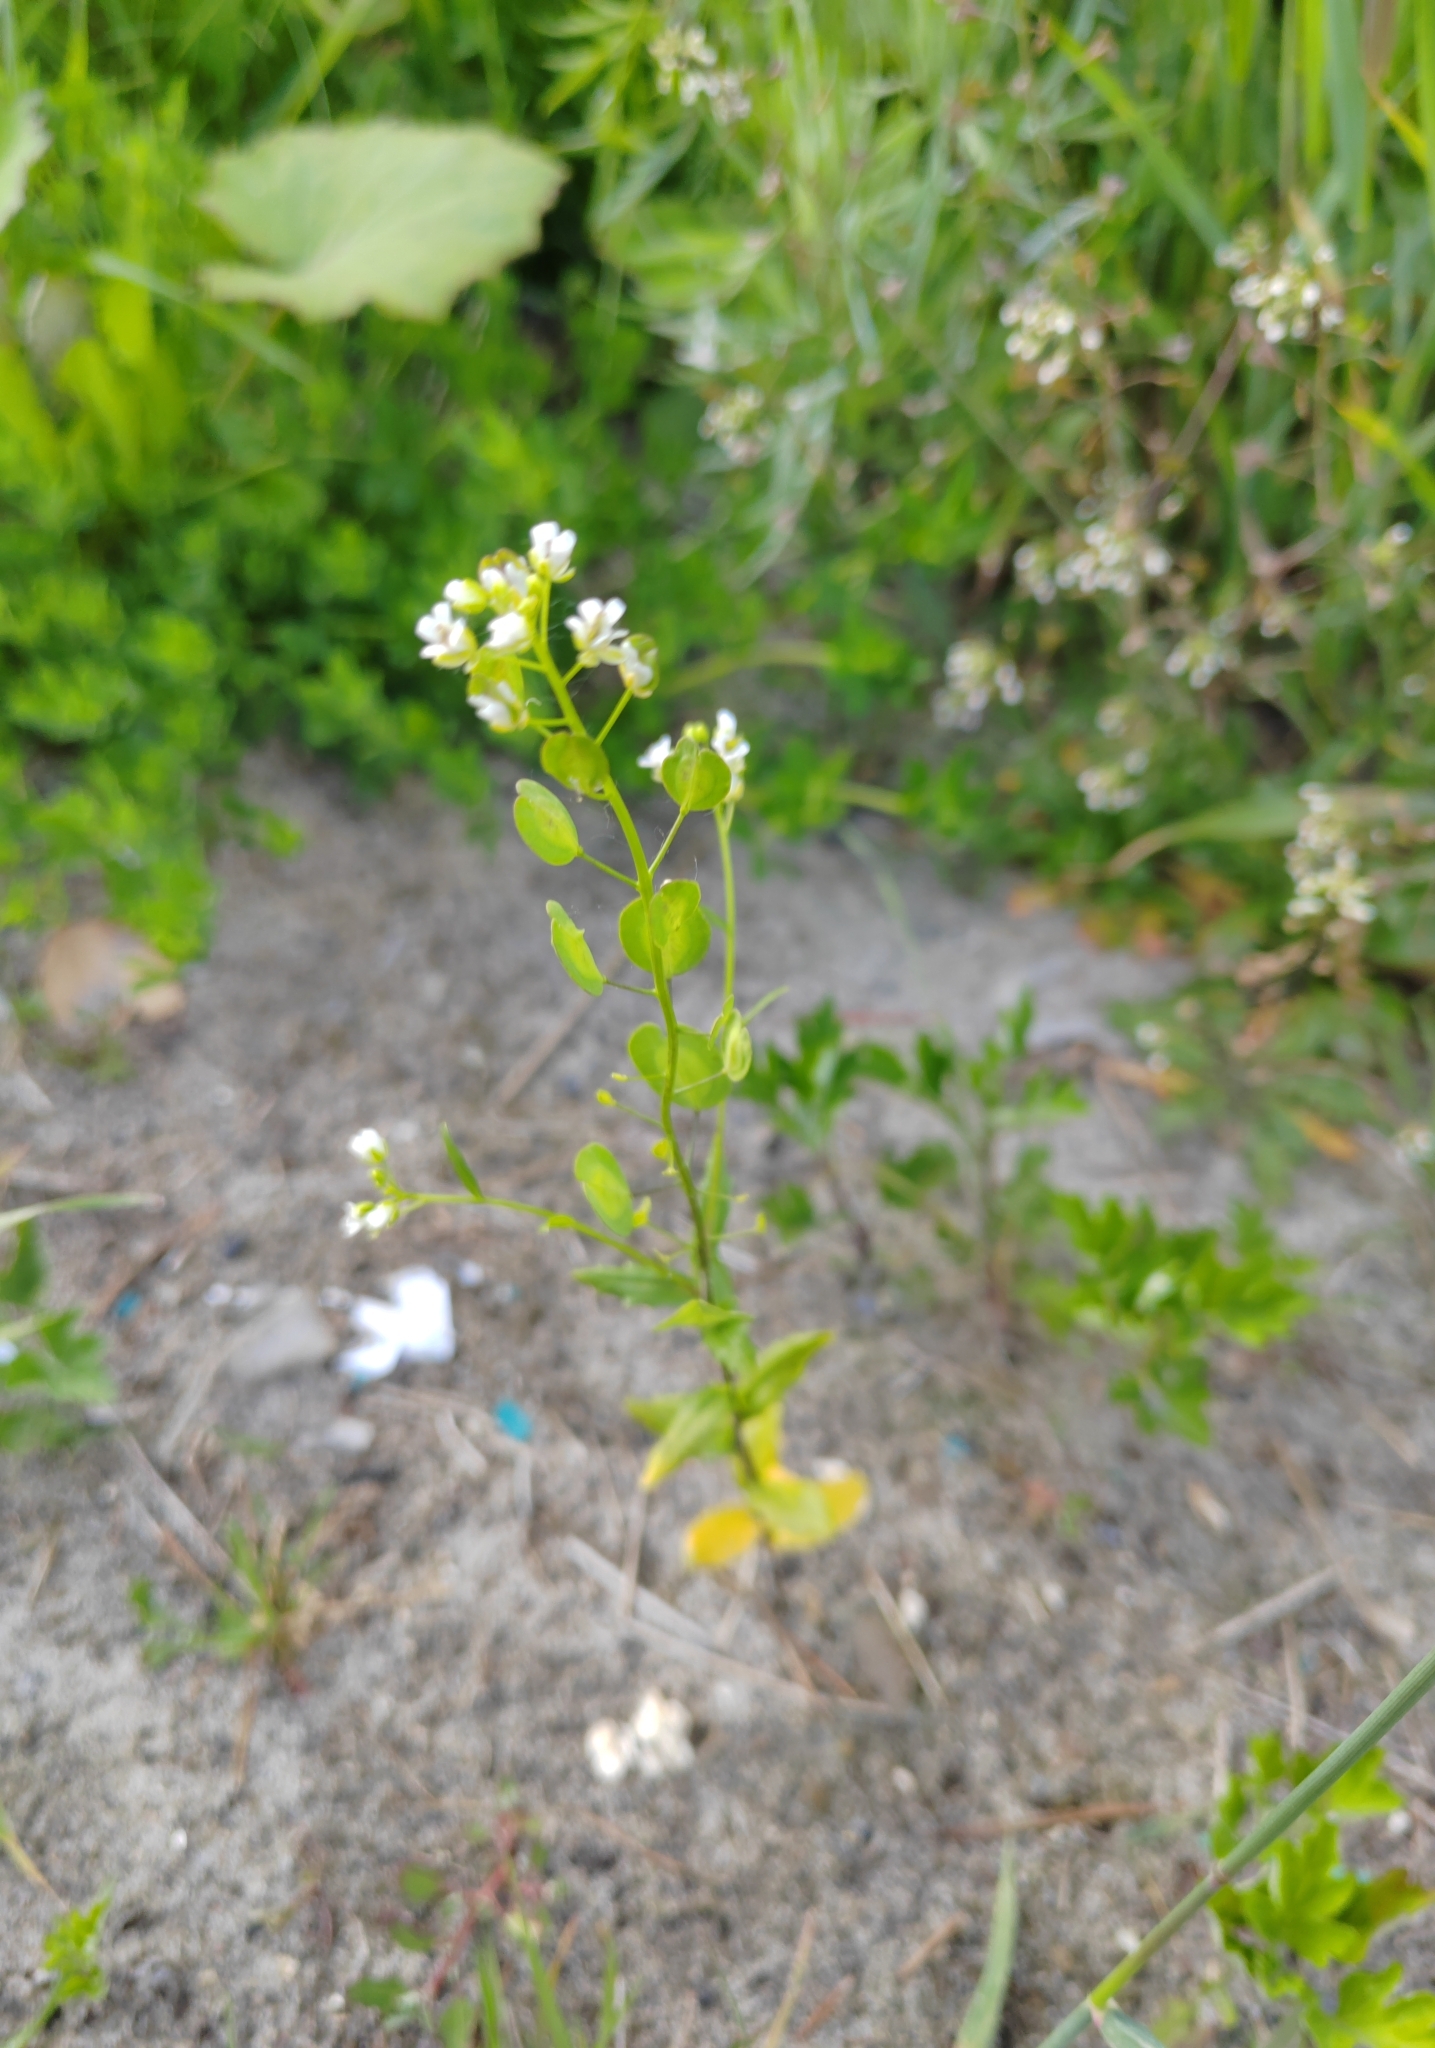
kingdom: Plantae
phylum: Tracheophyta
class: Magnoliopsida
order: Brassicales
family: Brassicaceae
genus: Thlaspi
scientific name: Thlaspi arvense
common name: Field pennycress
